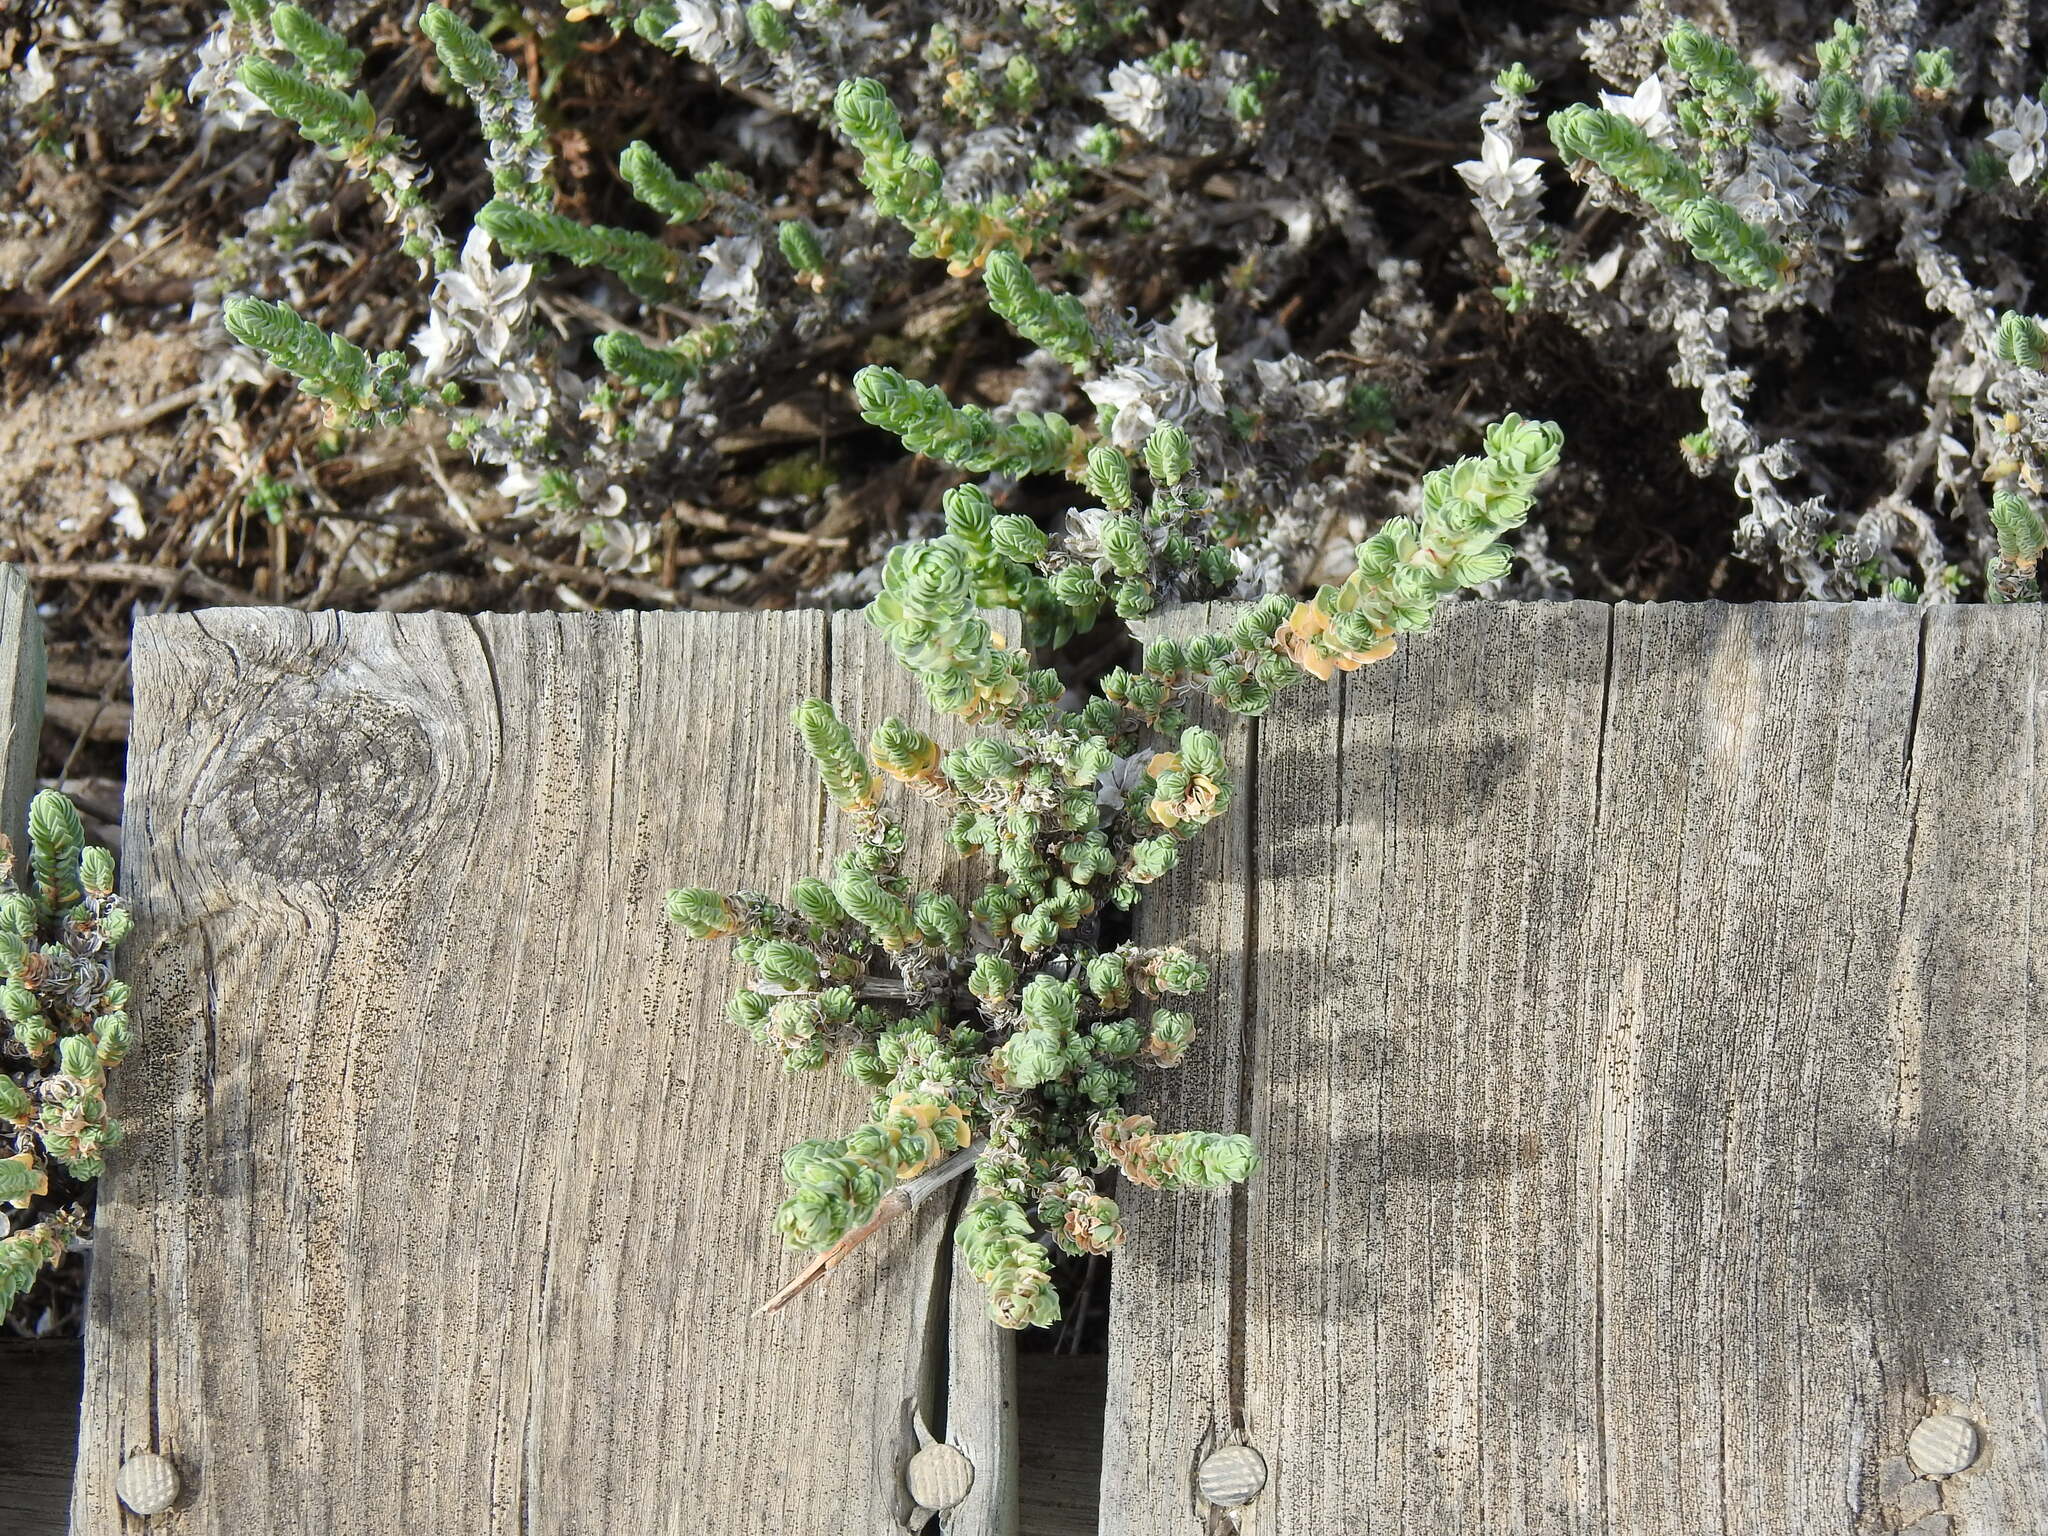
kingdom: Plantae
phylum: Tracheophyta
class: Magnoliopsida
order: Gentianales
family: Rubiaceae
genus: Crucianella
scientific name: Crucianella maritima
